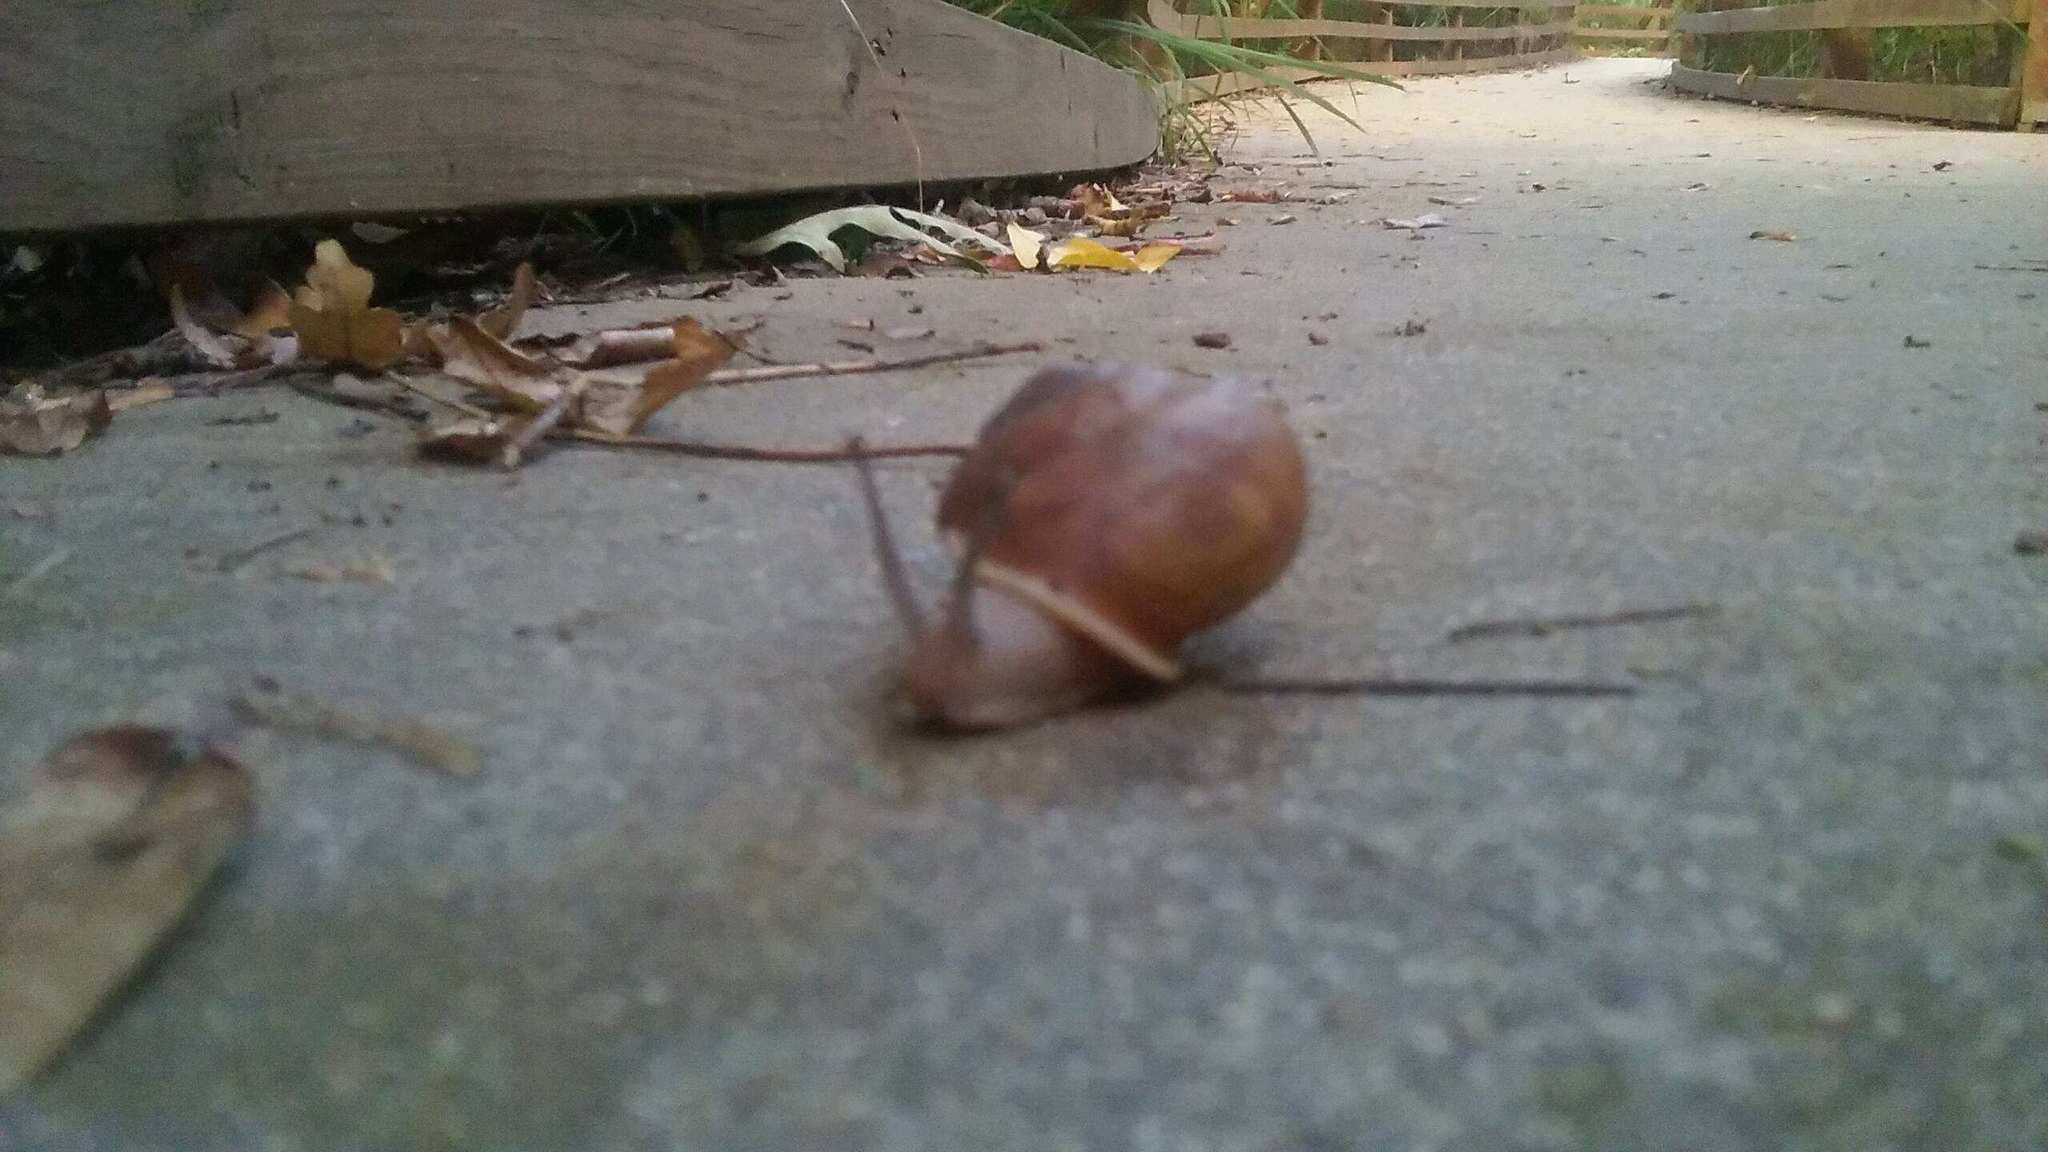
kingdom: Animalia
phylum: Mollusca
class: Gastropoda
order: Stylommatophora
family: Polygyridae
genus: Neohelix
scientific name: Neohelix albolabris
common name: Eastern whitelip
